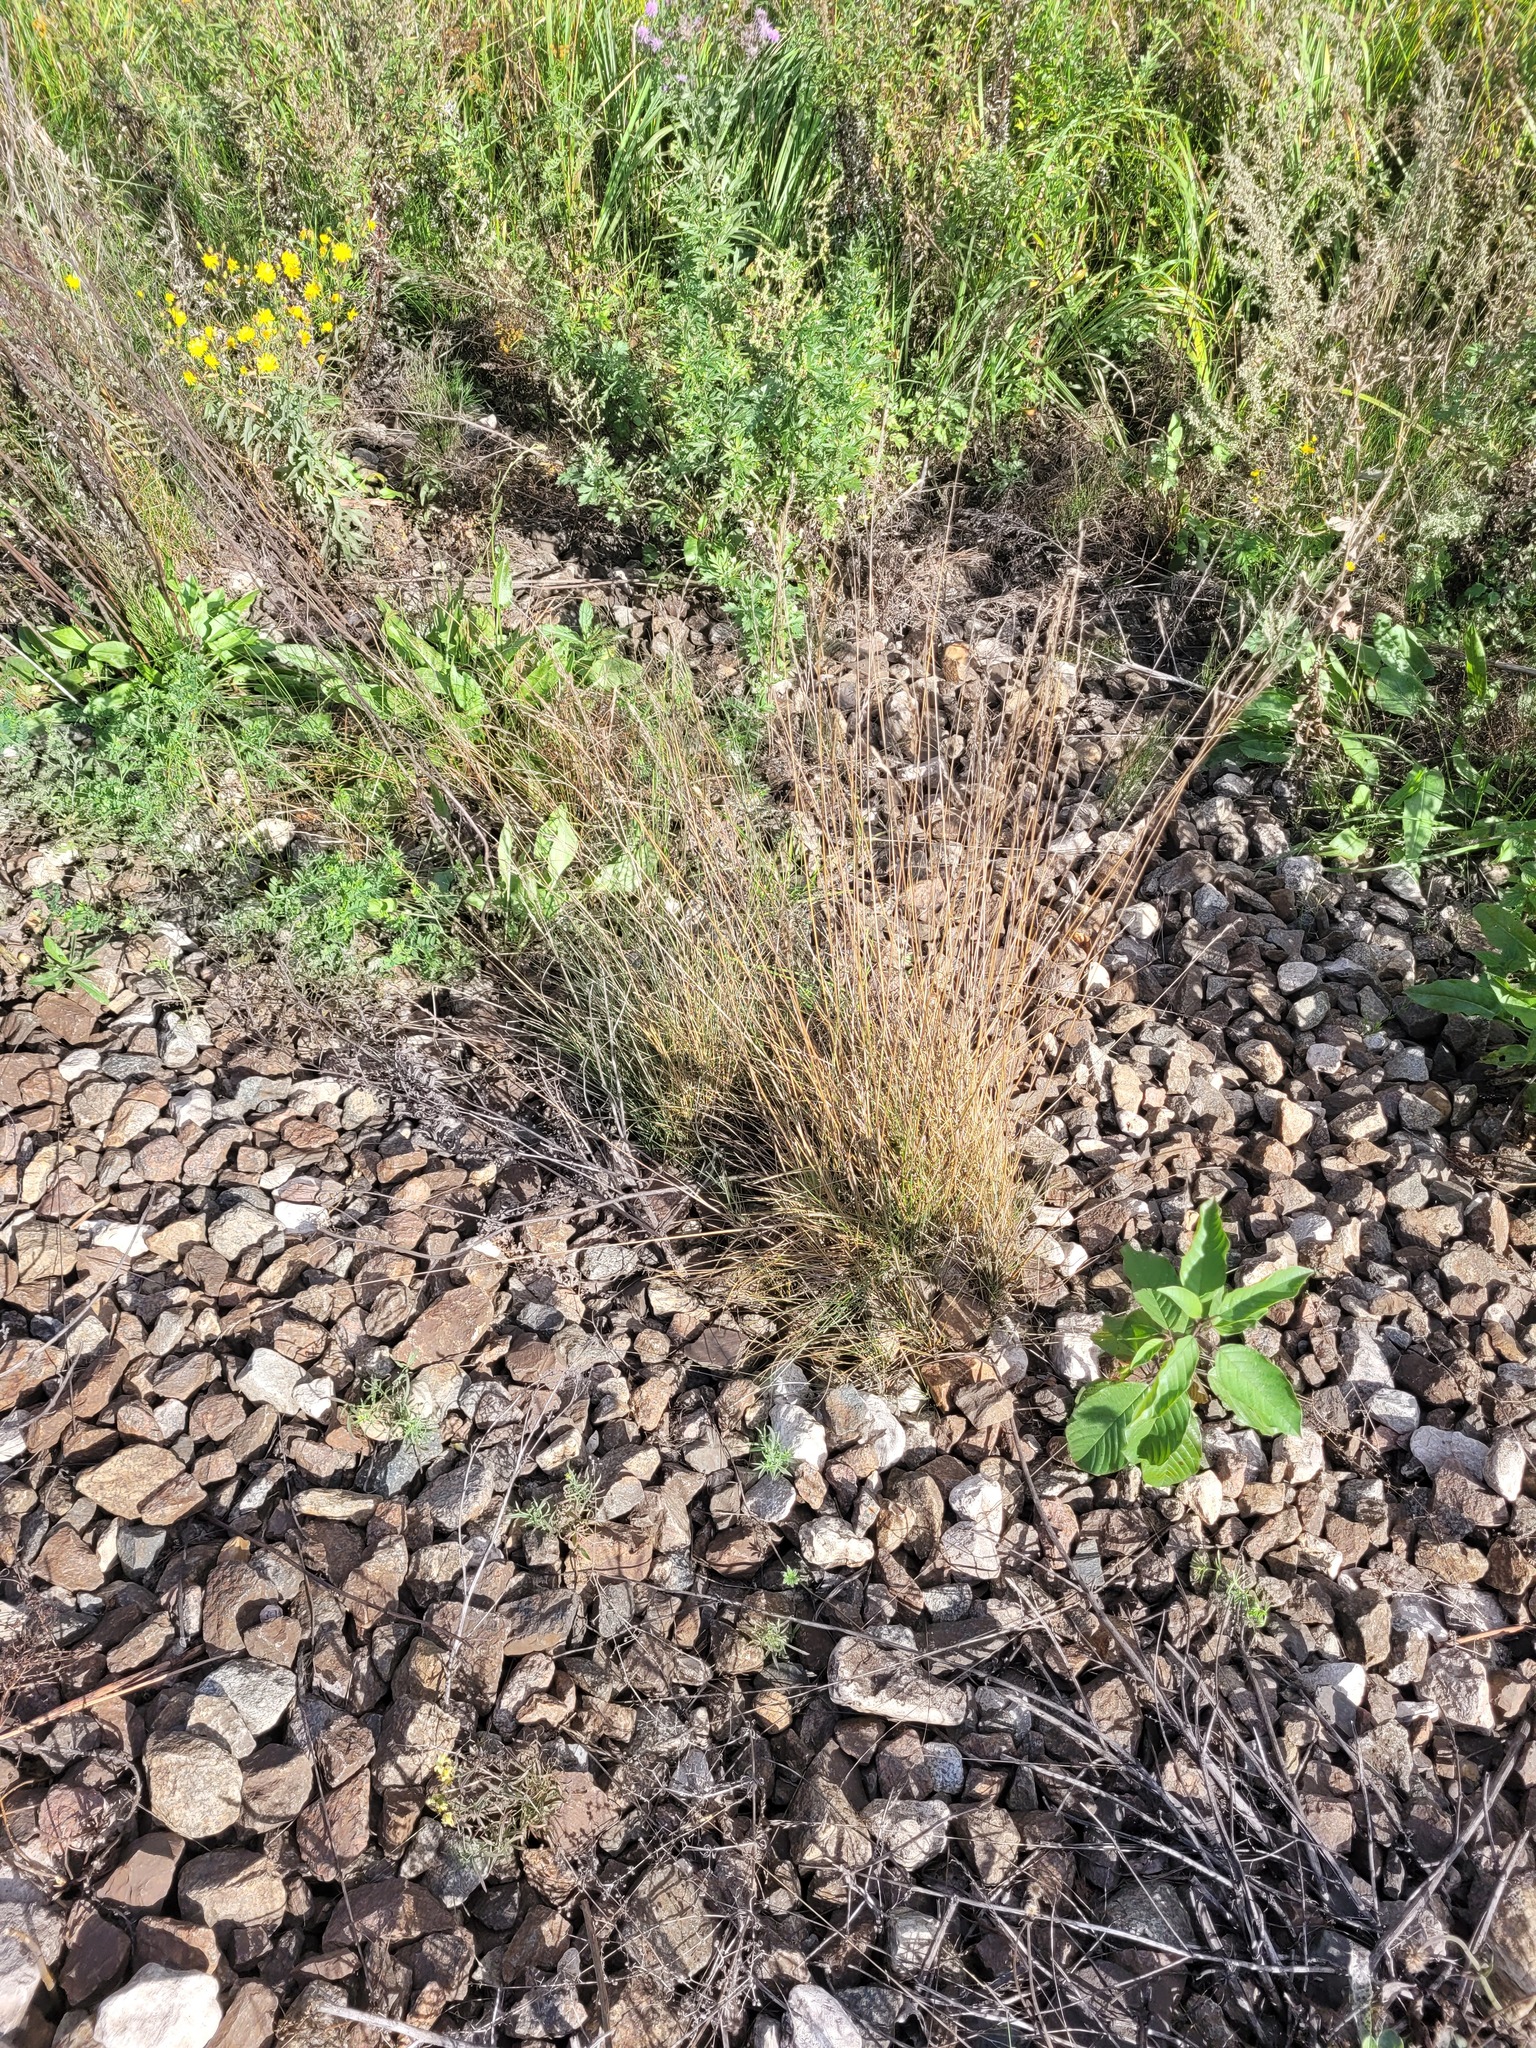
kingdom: Plantae
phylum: Tracheophyta
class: Liliopsida
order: Poales
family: Poaceae
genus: Festuca
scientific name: Festuca rubra
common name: Red fescue
